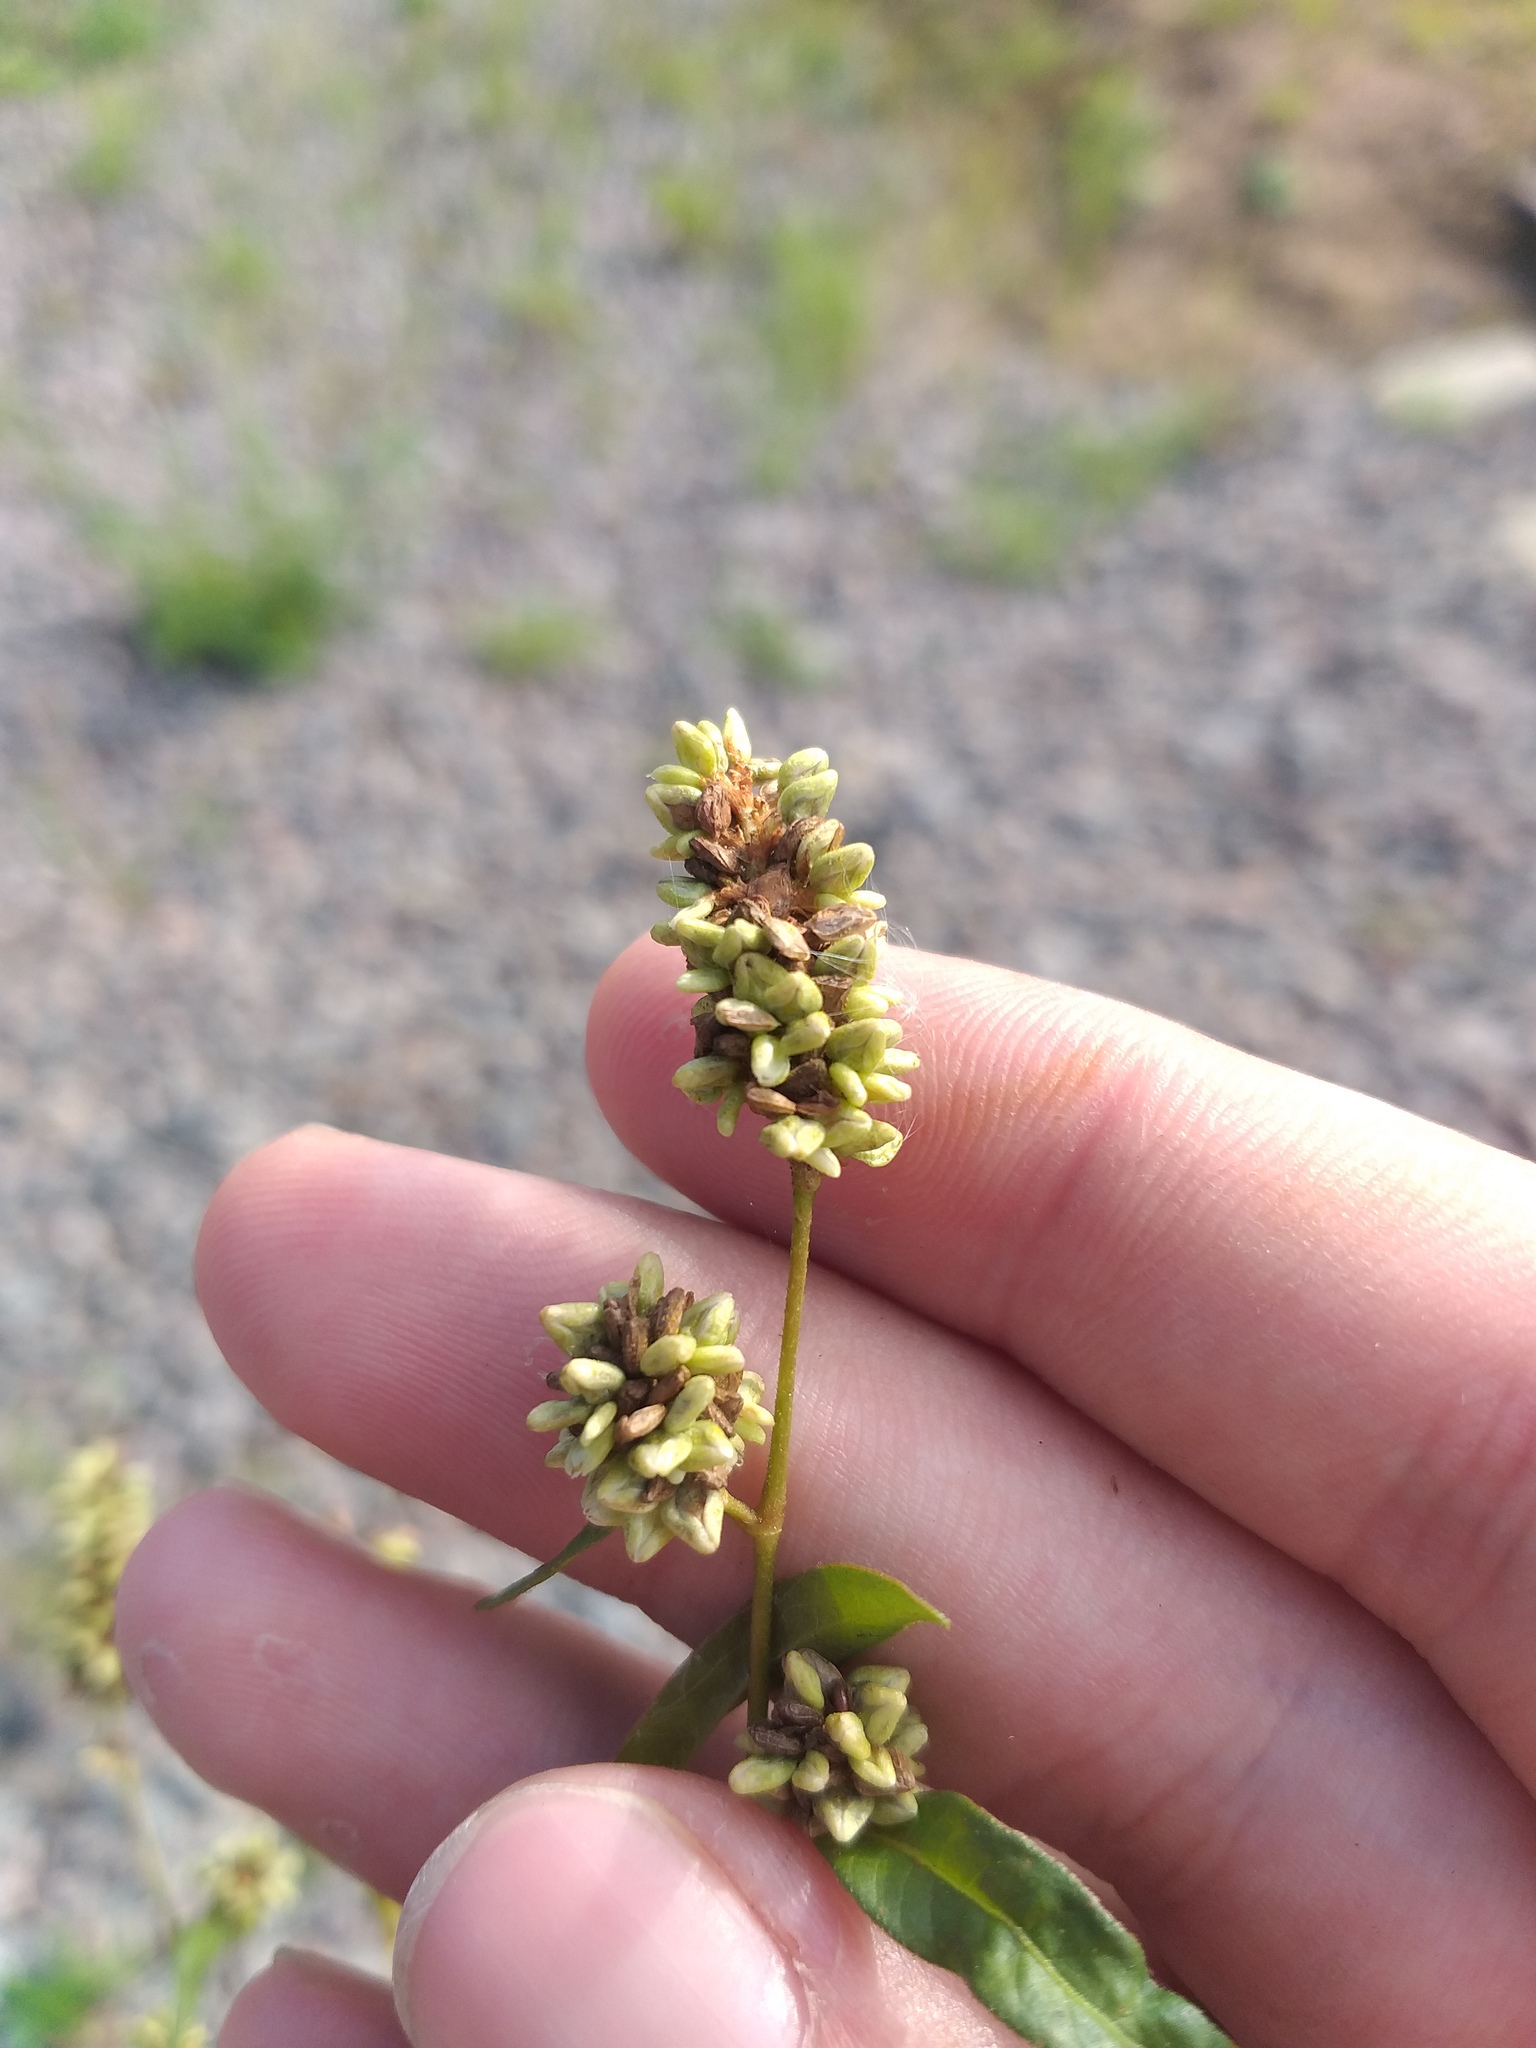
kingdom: Plantae
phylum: Tracheophyta
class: Magnoliopsida
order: Caryophyllales
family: Polygonaceae
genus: Persicaria
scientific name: Persicaria lapathifolia
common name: Curlytop knotweed
